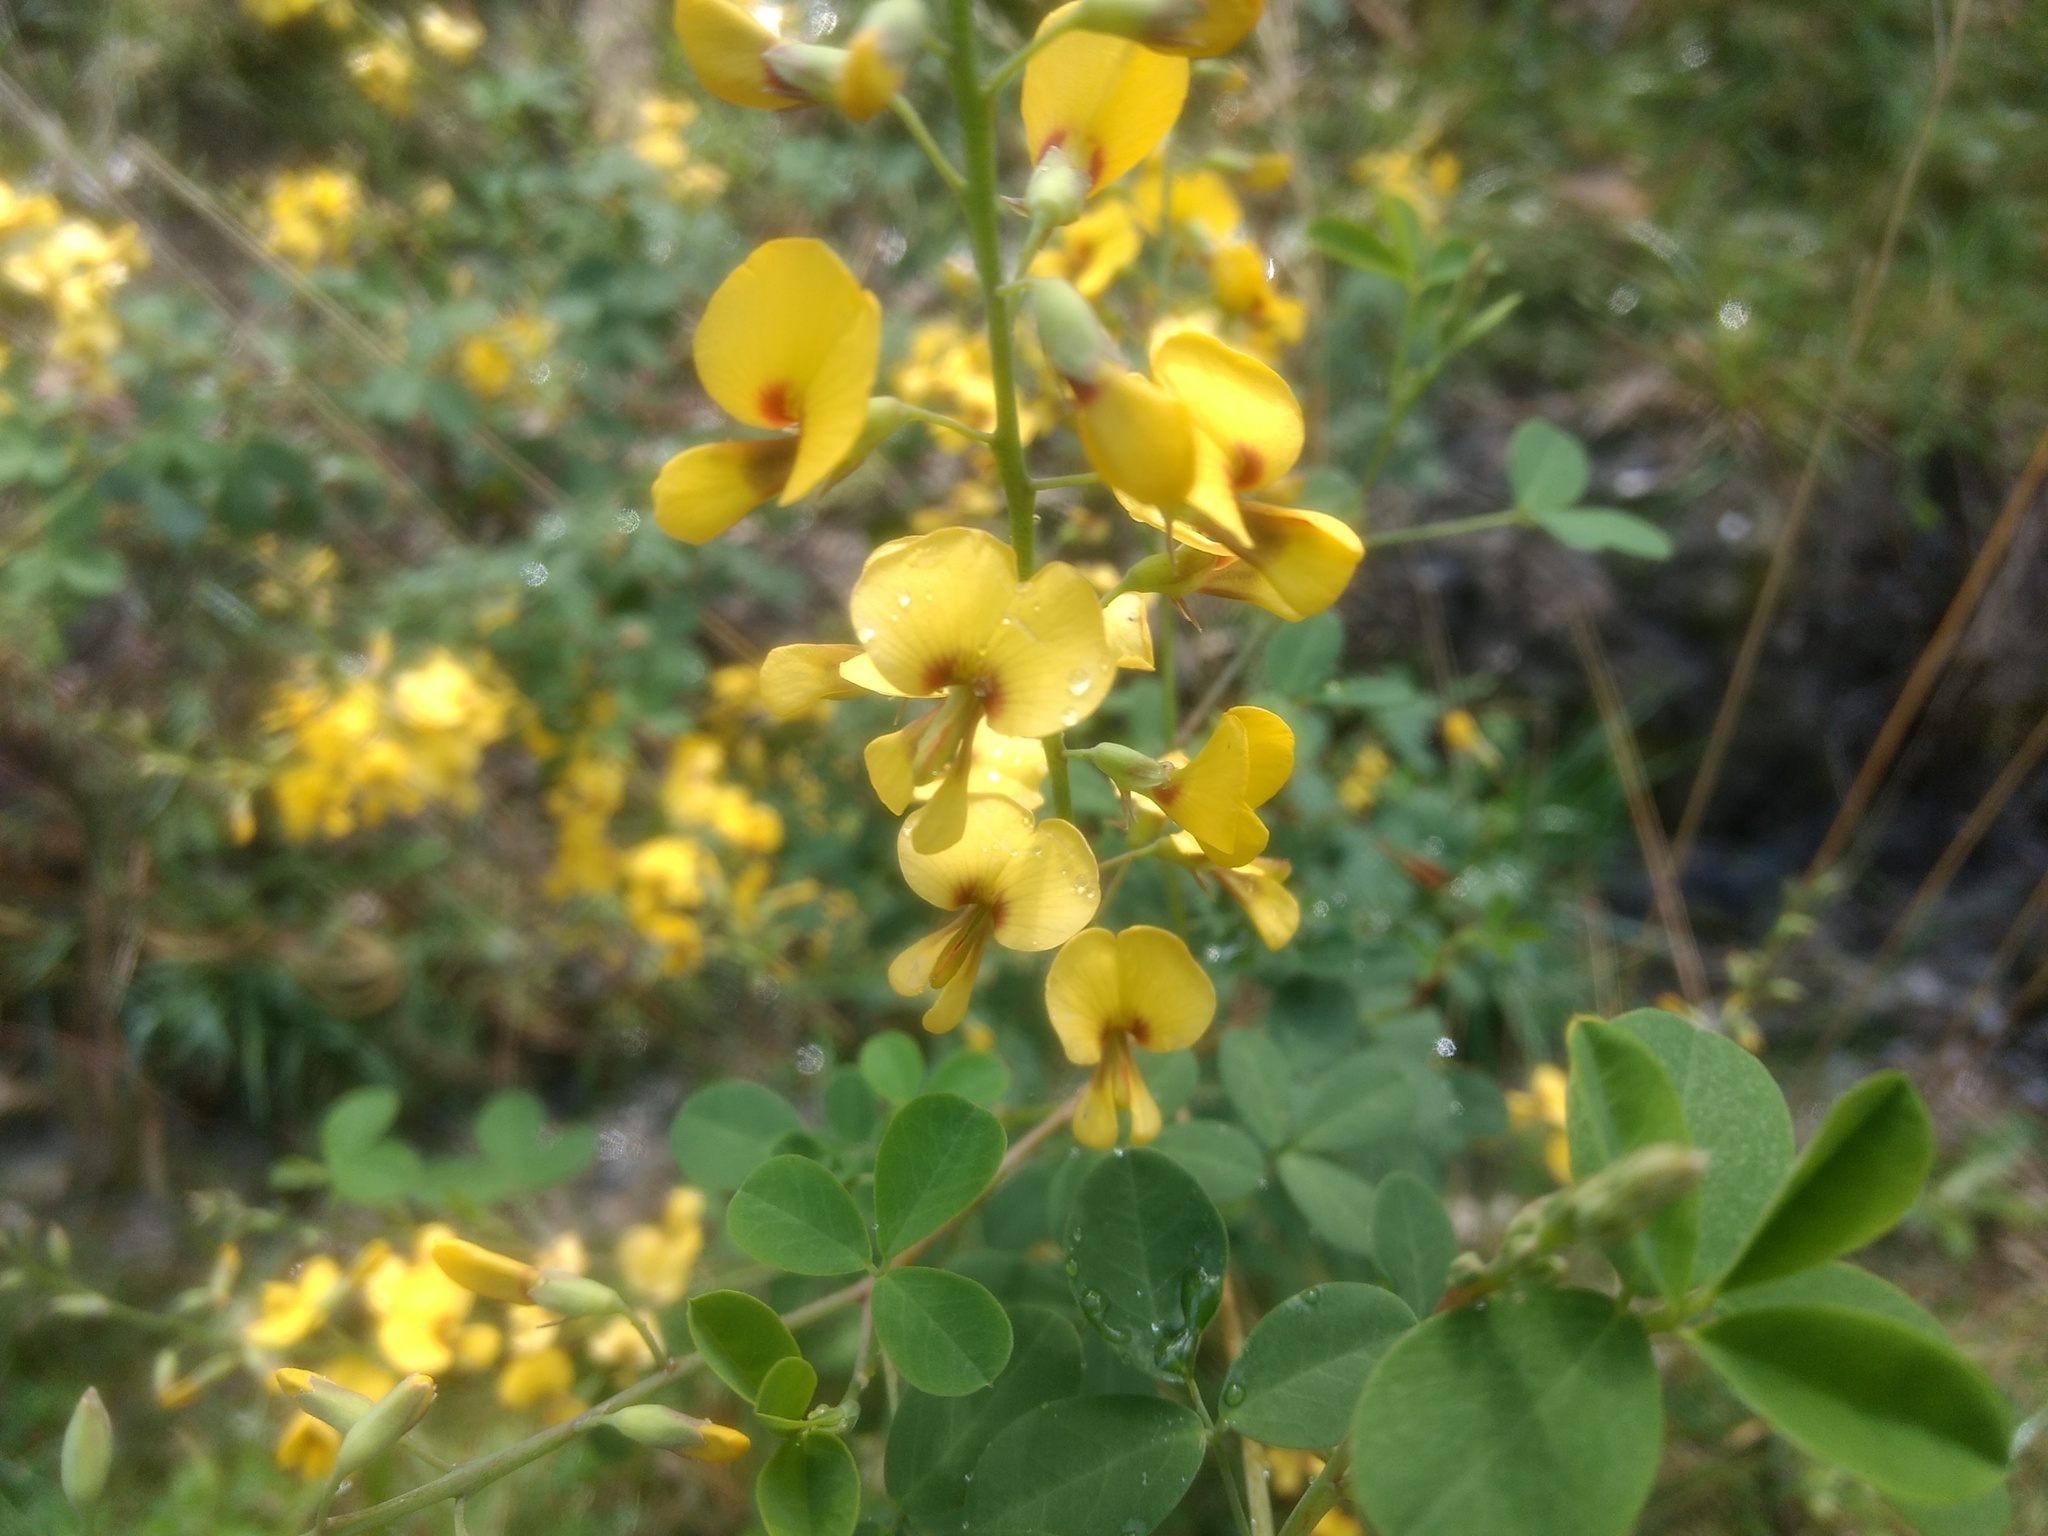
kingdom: Plantae
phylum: Tracheophyta
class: Magnoliopsida
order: Fabales
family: Fabaceae
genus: Goodia
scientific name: Goodia lotifolia
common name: Cloverleaf-poison
